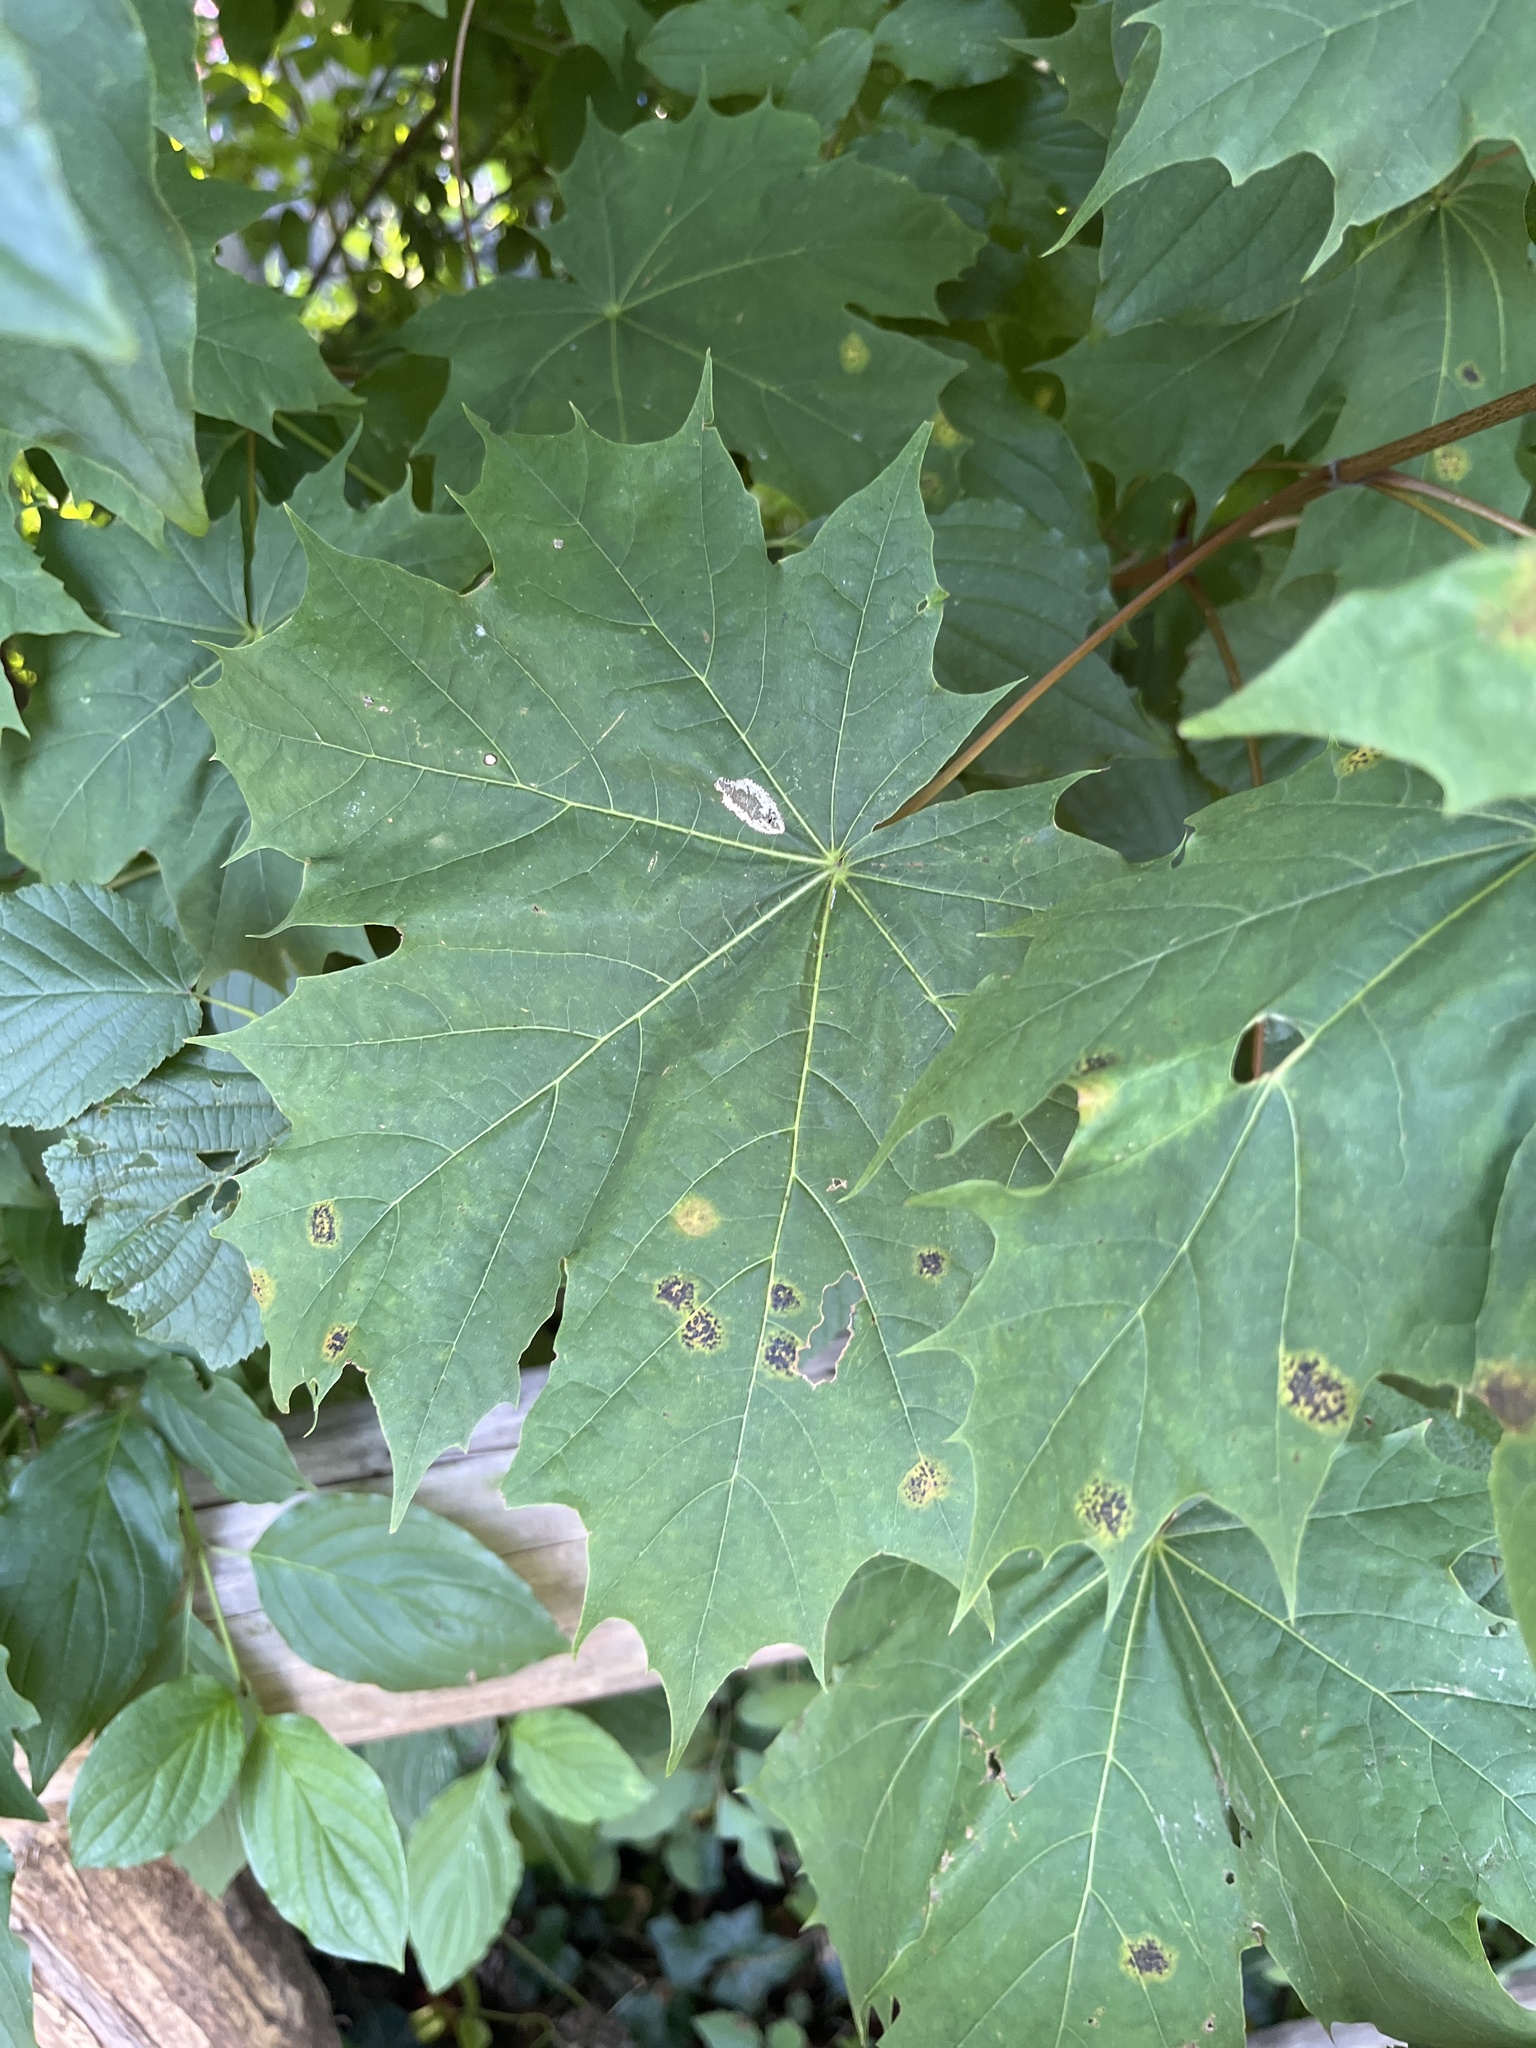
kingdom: Fungi
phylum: Ascomycota
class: Leotiomycetes
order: Rhytismatales
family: Rhytismataceae
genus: Rhytisma
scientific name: Rhytisma acerinum
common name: European tar spot
